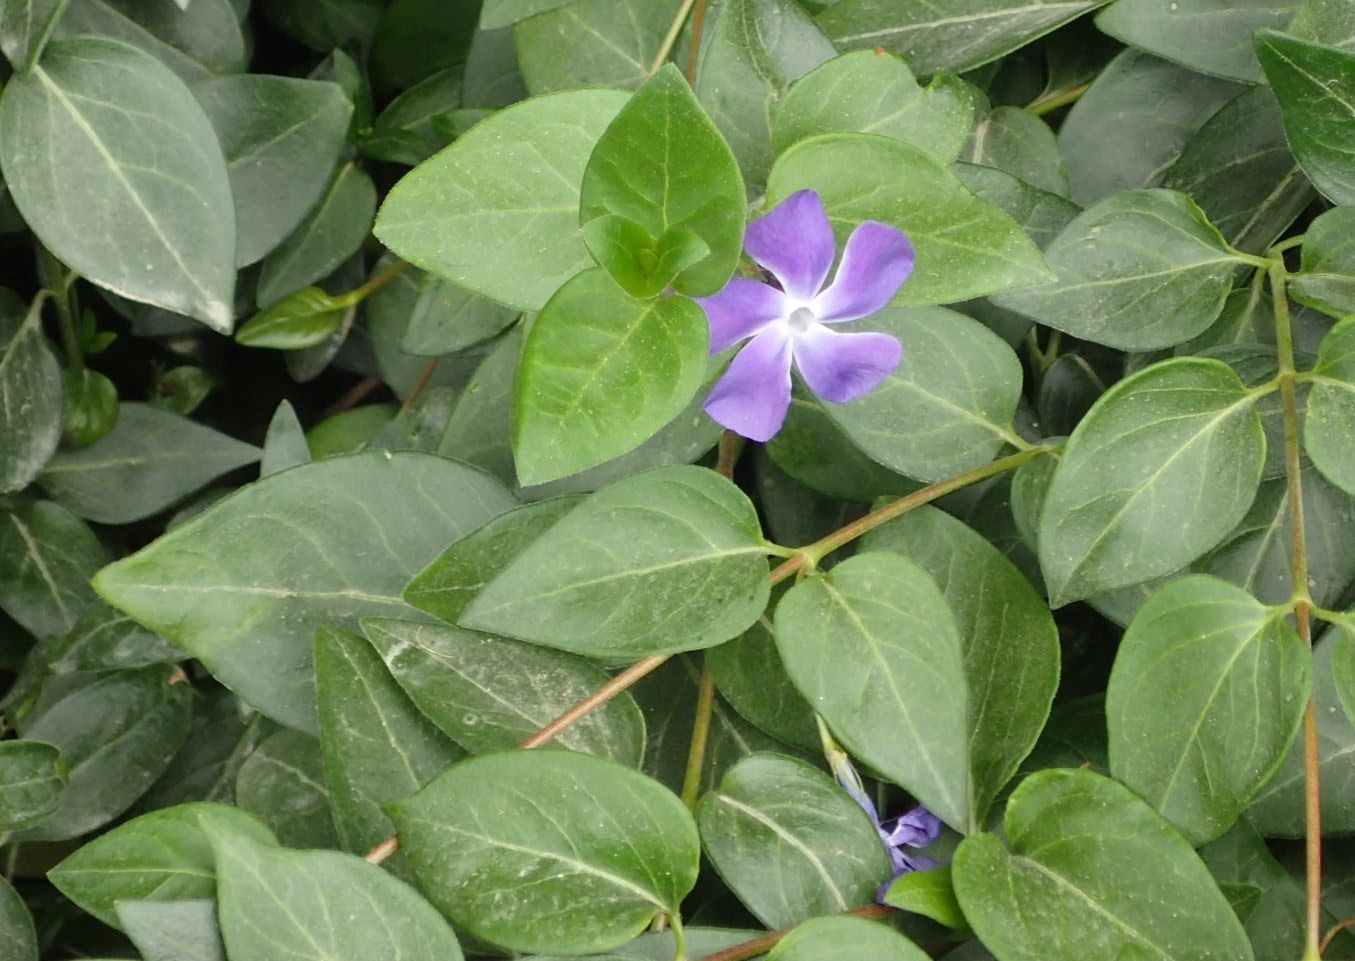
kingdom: Plantae
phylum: Tracheophyta
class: Magnoliopsida
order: Gentianales
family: Apocynaceae
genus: Vinca
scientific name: Vinca major
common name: Greater periwinkle
